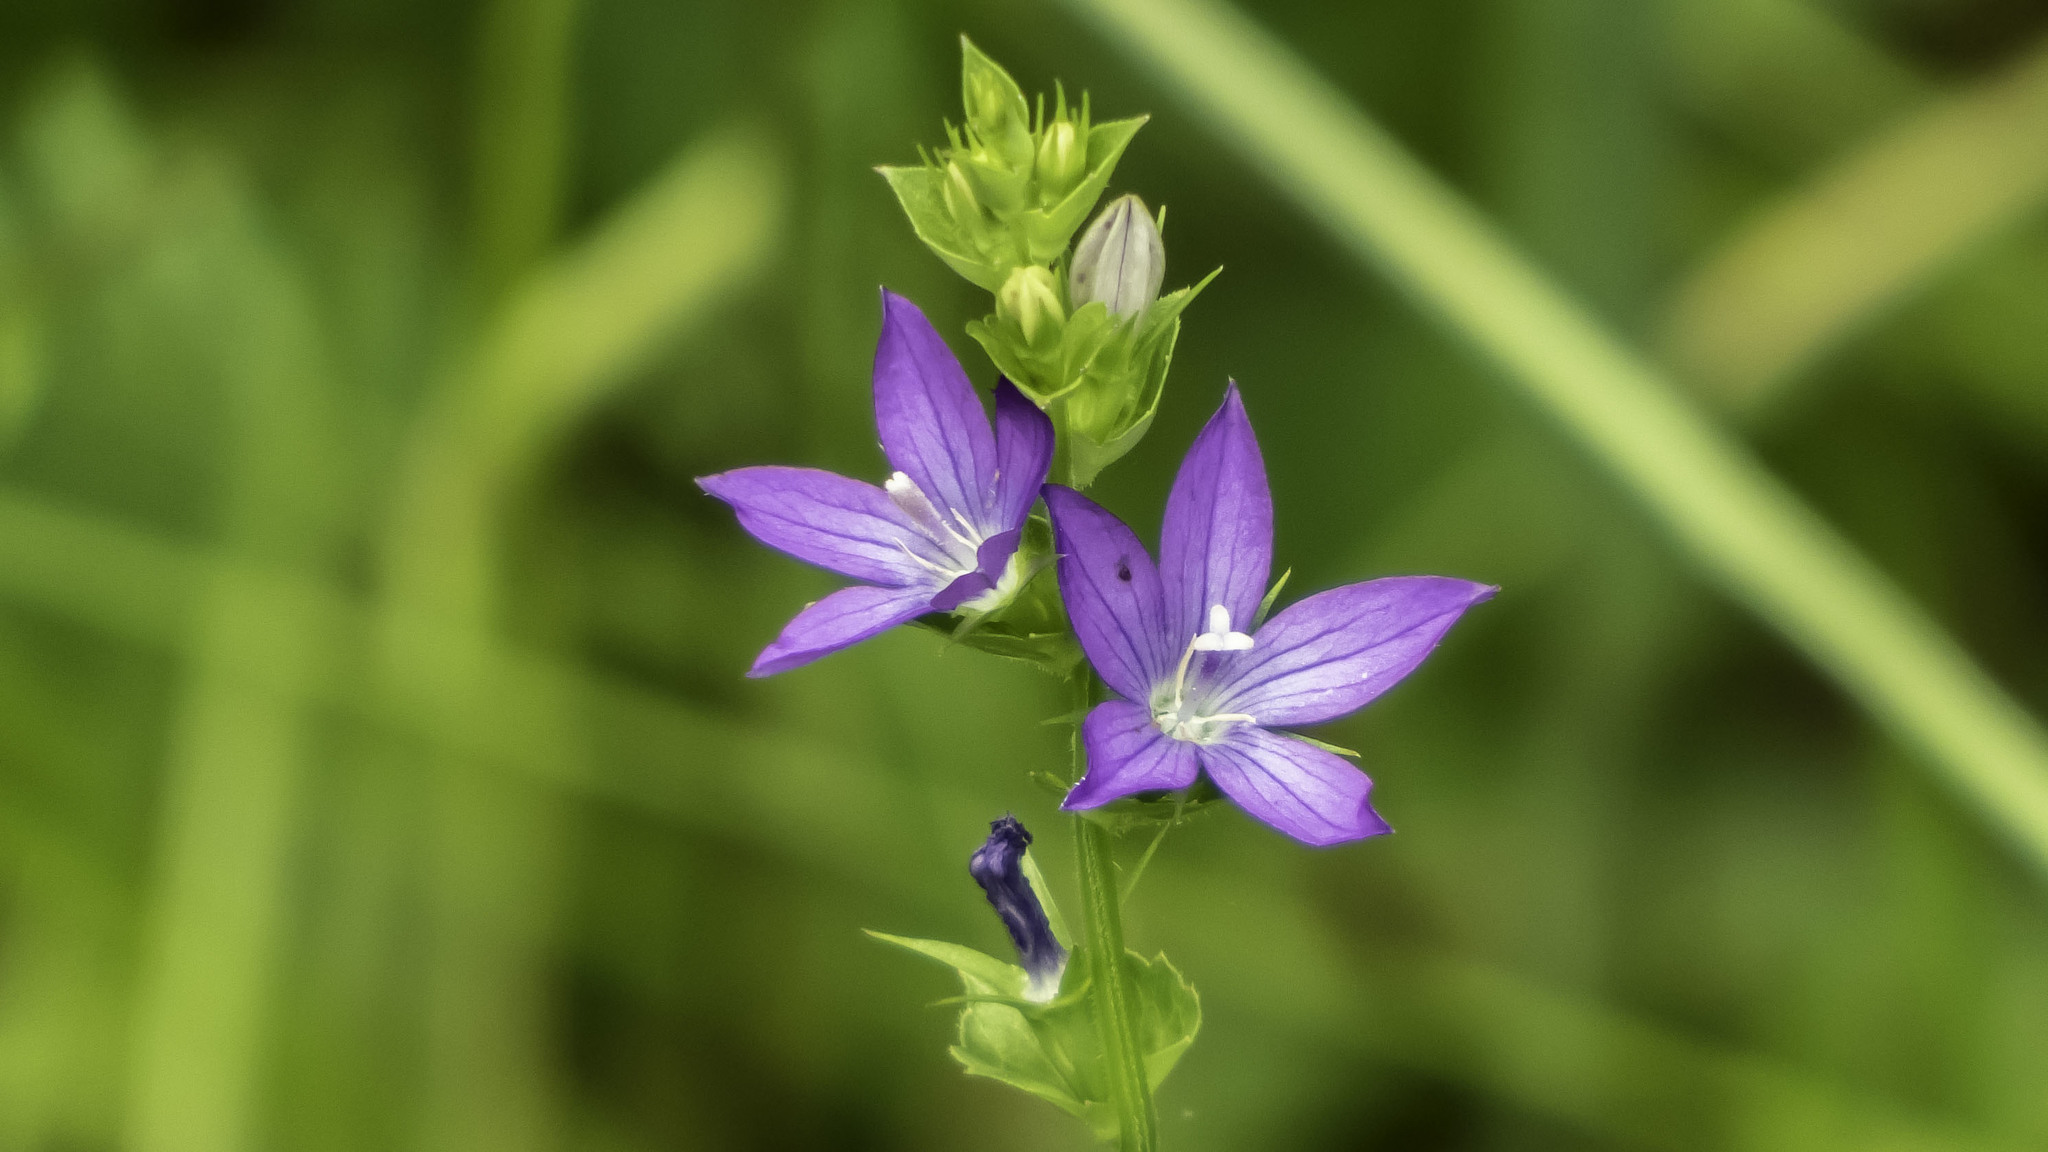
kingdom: Plantae
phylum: Tracheophyta
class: Magnoliopsida
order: Asterales
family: Campanulaceae
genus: Triodanis
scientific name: Triodanis perfoliata
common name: Clasping venus' looking-glass
